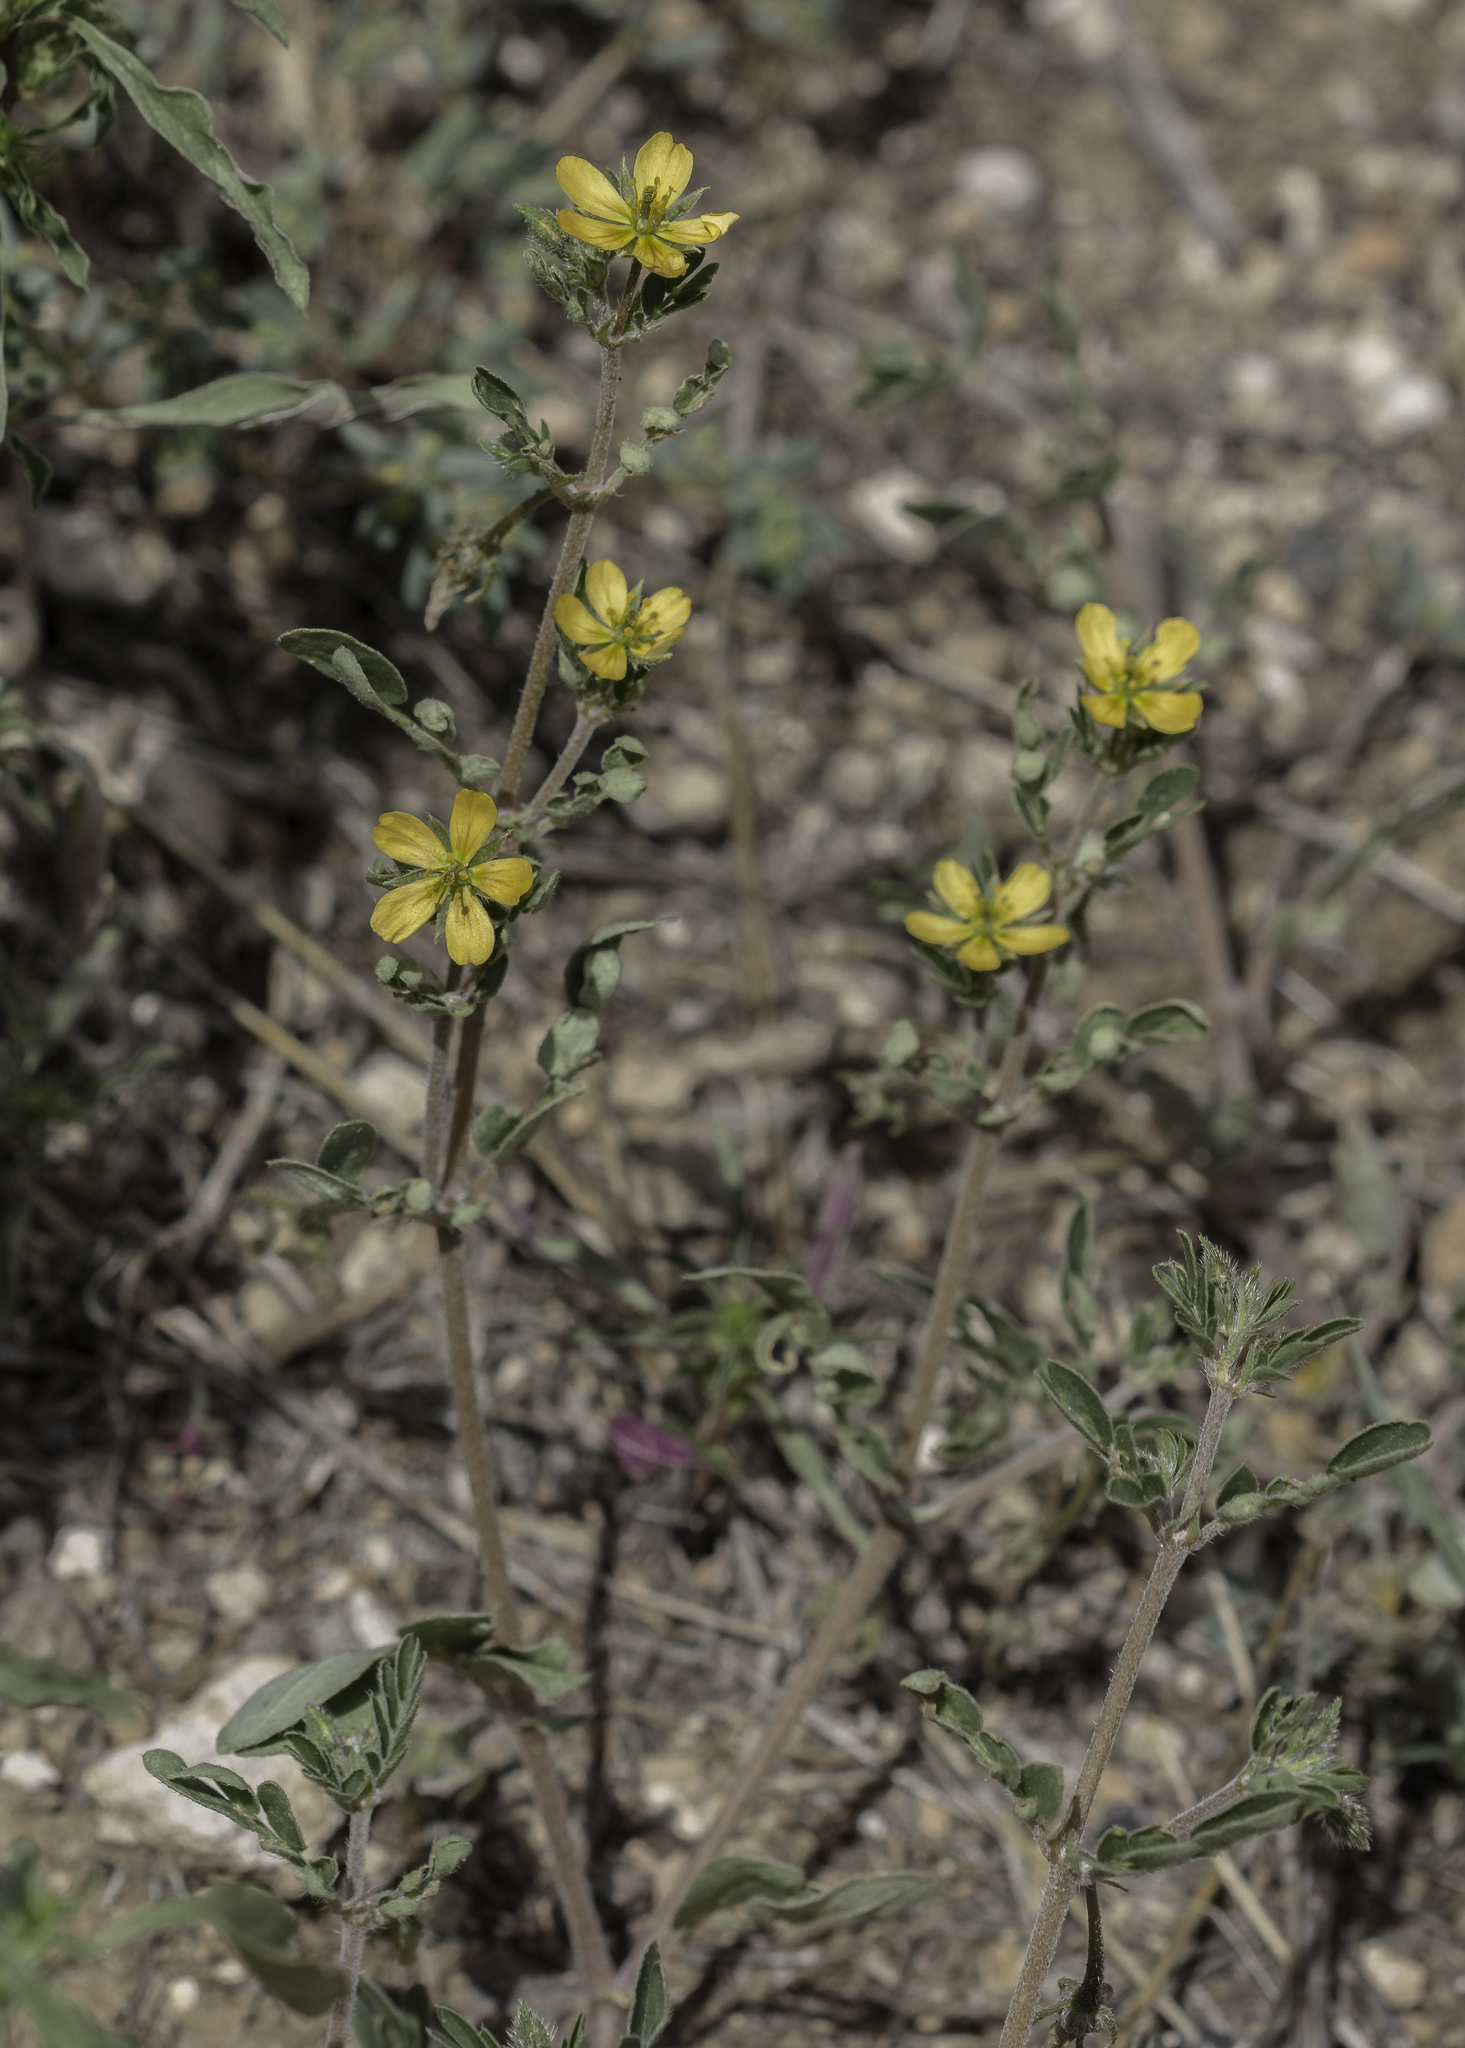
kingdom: Plantae
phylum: Tracheophyta
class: Magnoliopsida
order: Zygophyllales
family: Zygophyllaceae
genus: Kallstroemia
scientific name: Kallstroemia parviflora
